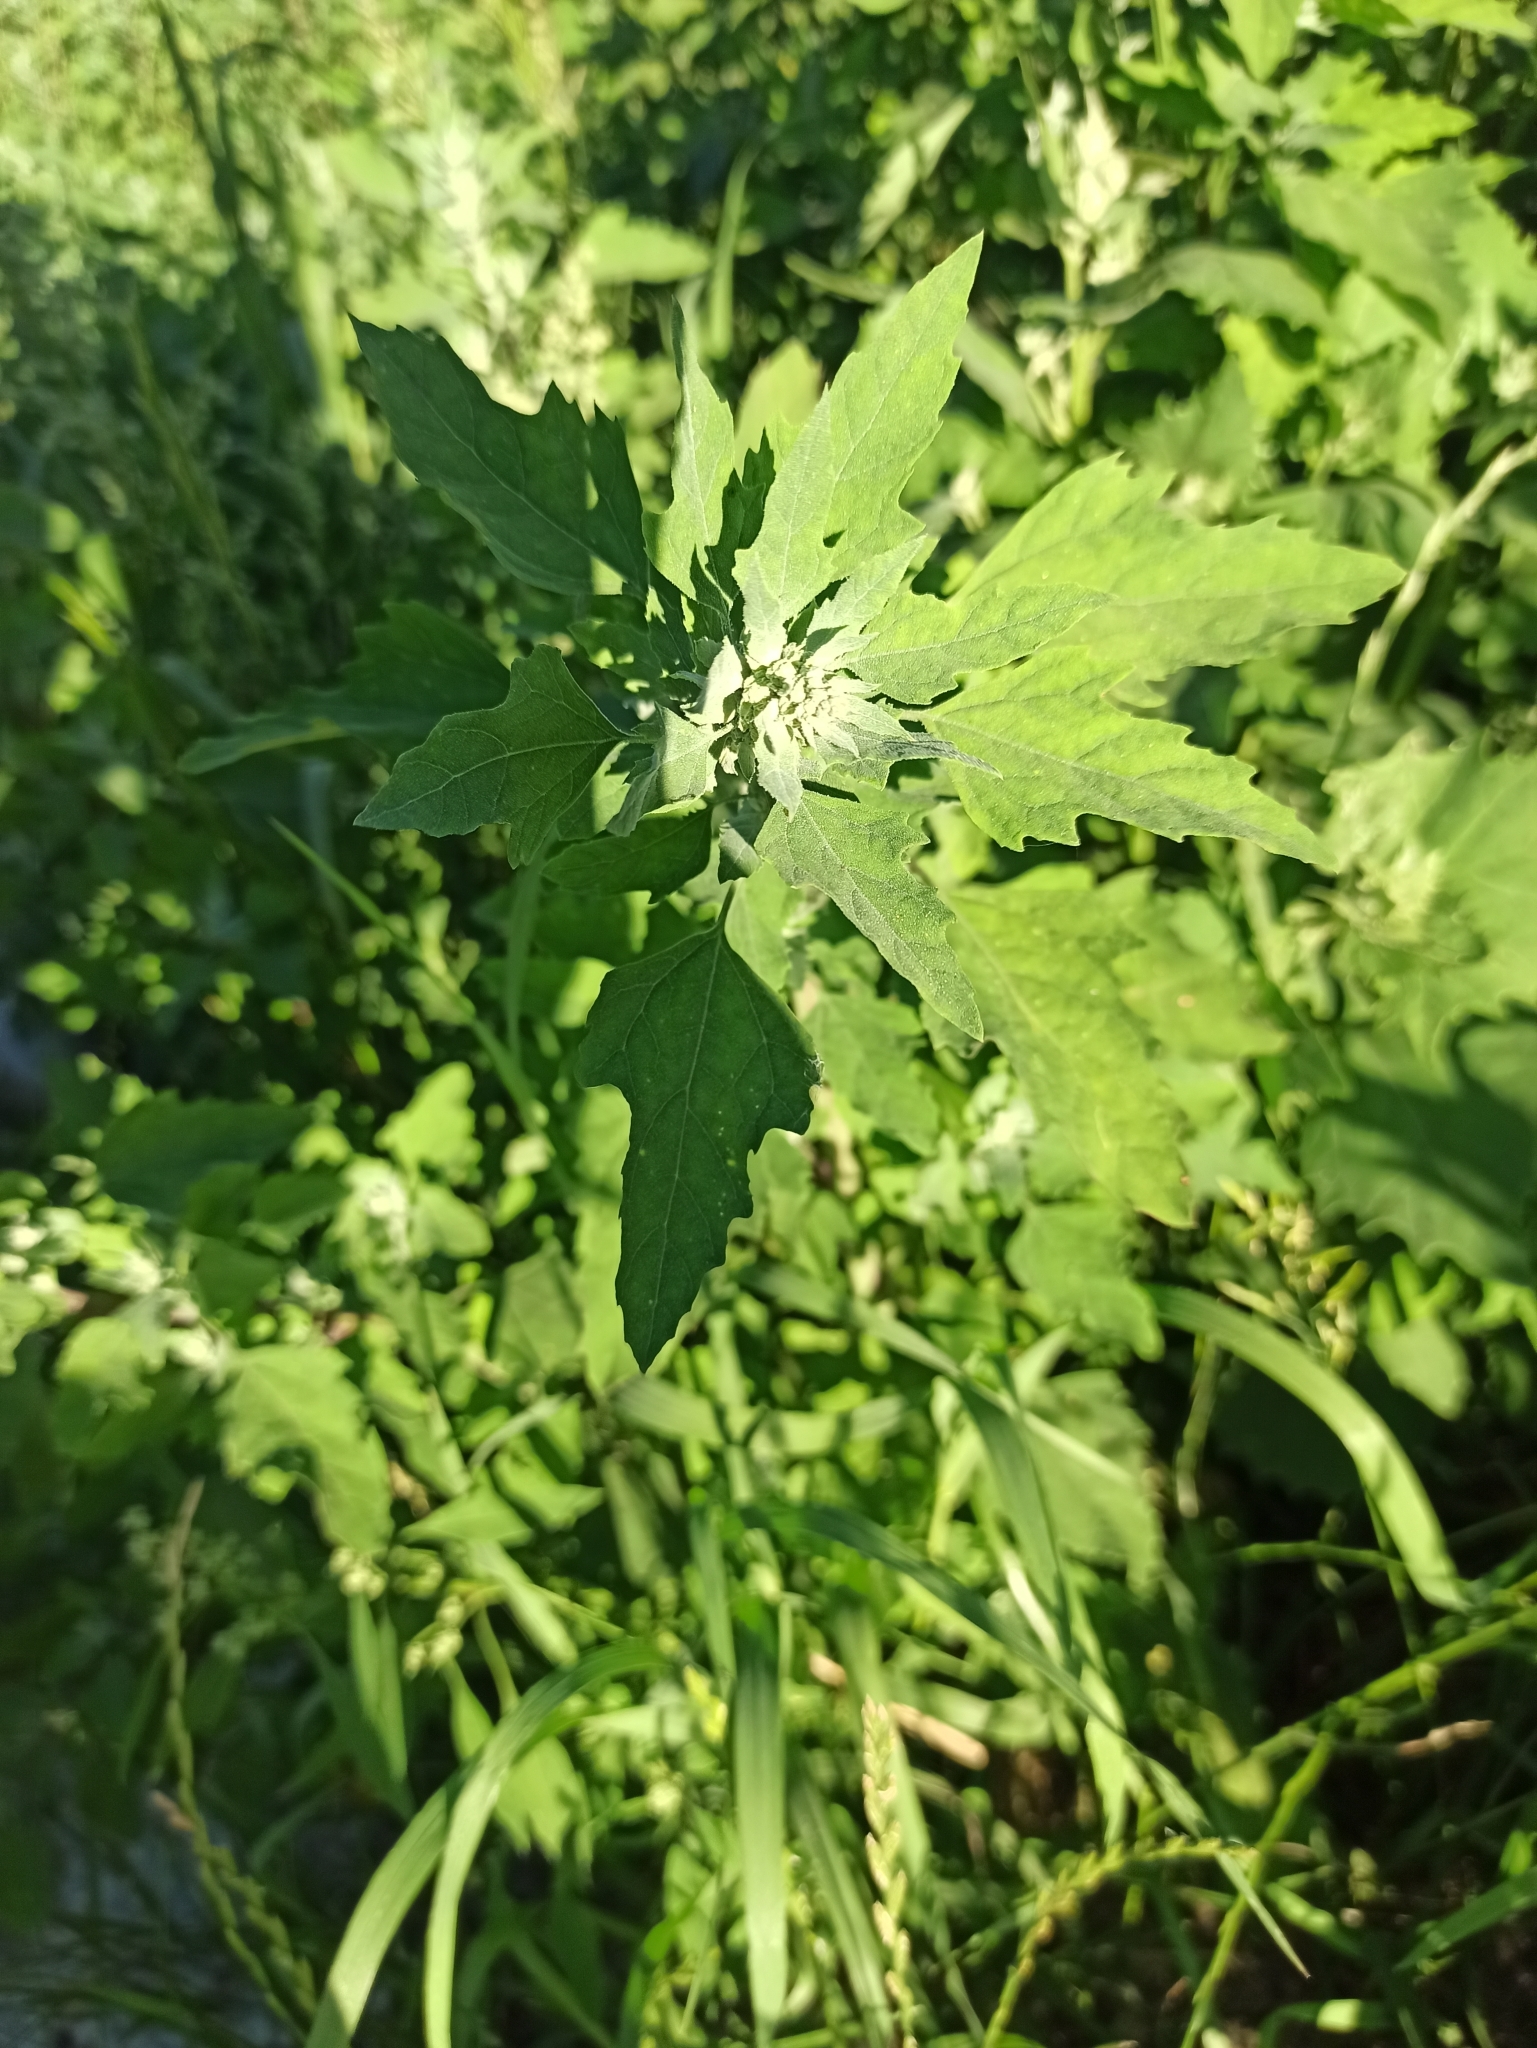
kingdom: Plantae
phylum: Tracheophyta
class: Magnoliopsida
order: Caryophyllales
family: Amaranthaceae
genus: Chenopodium
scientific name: Chenopodium album
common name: Fat-hen
